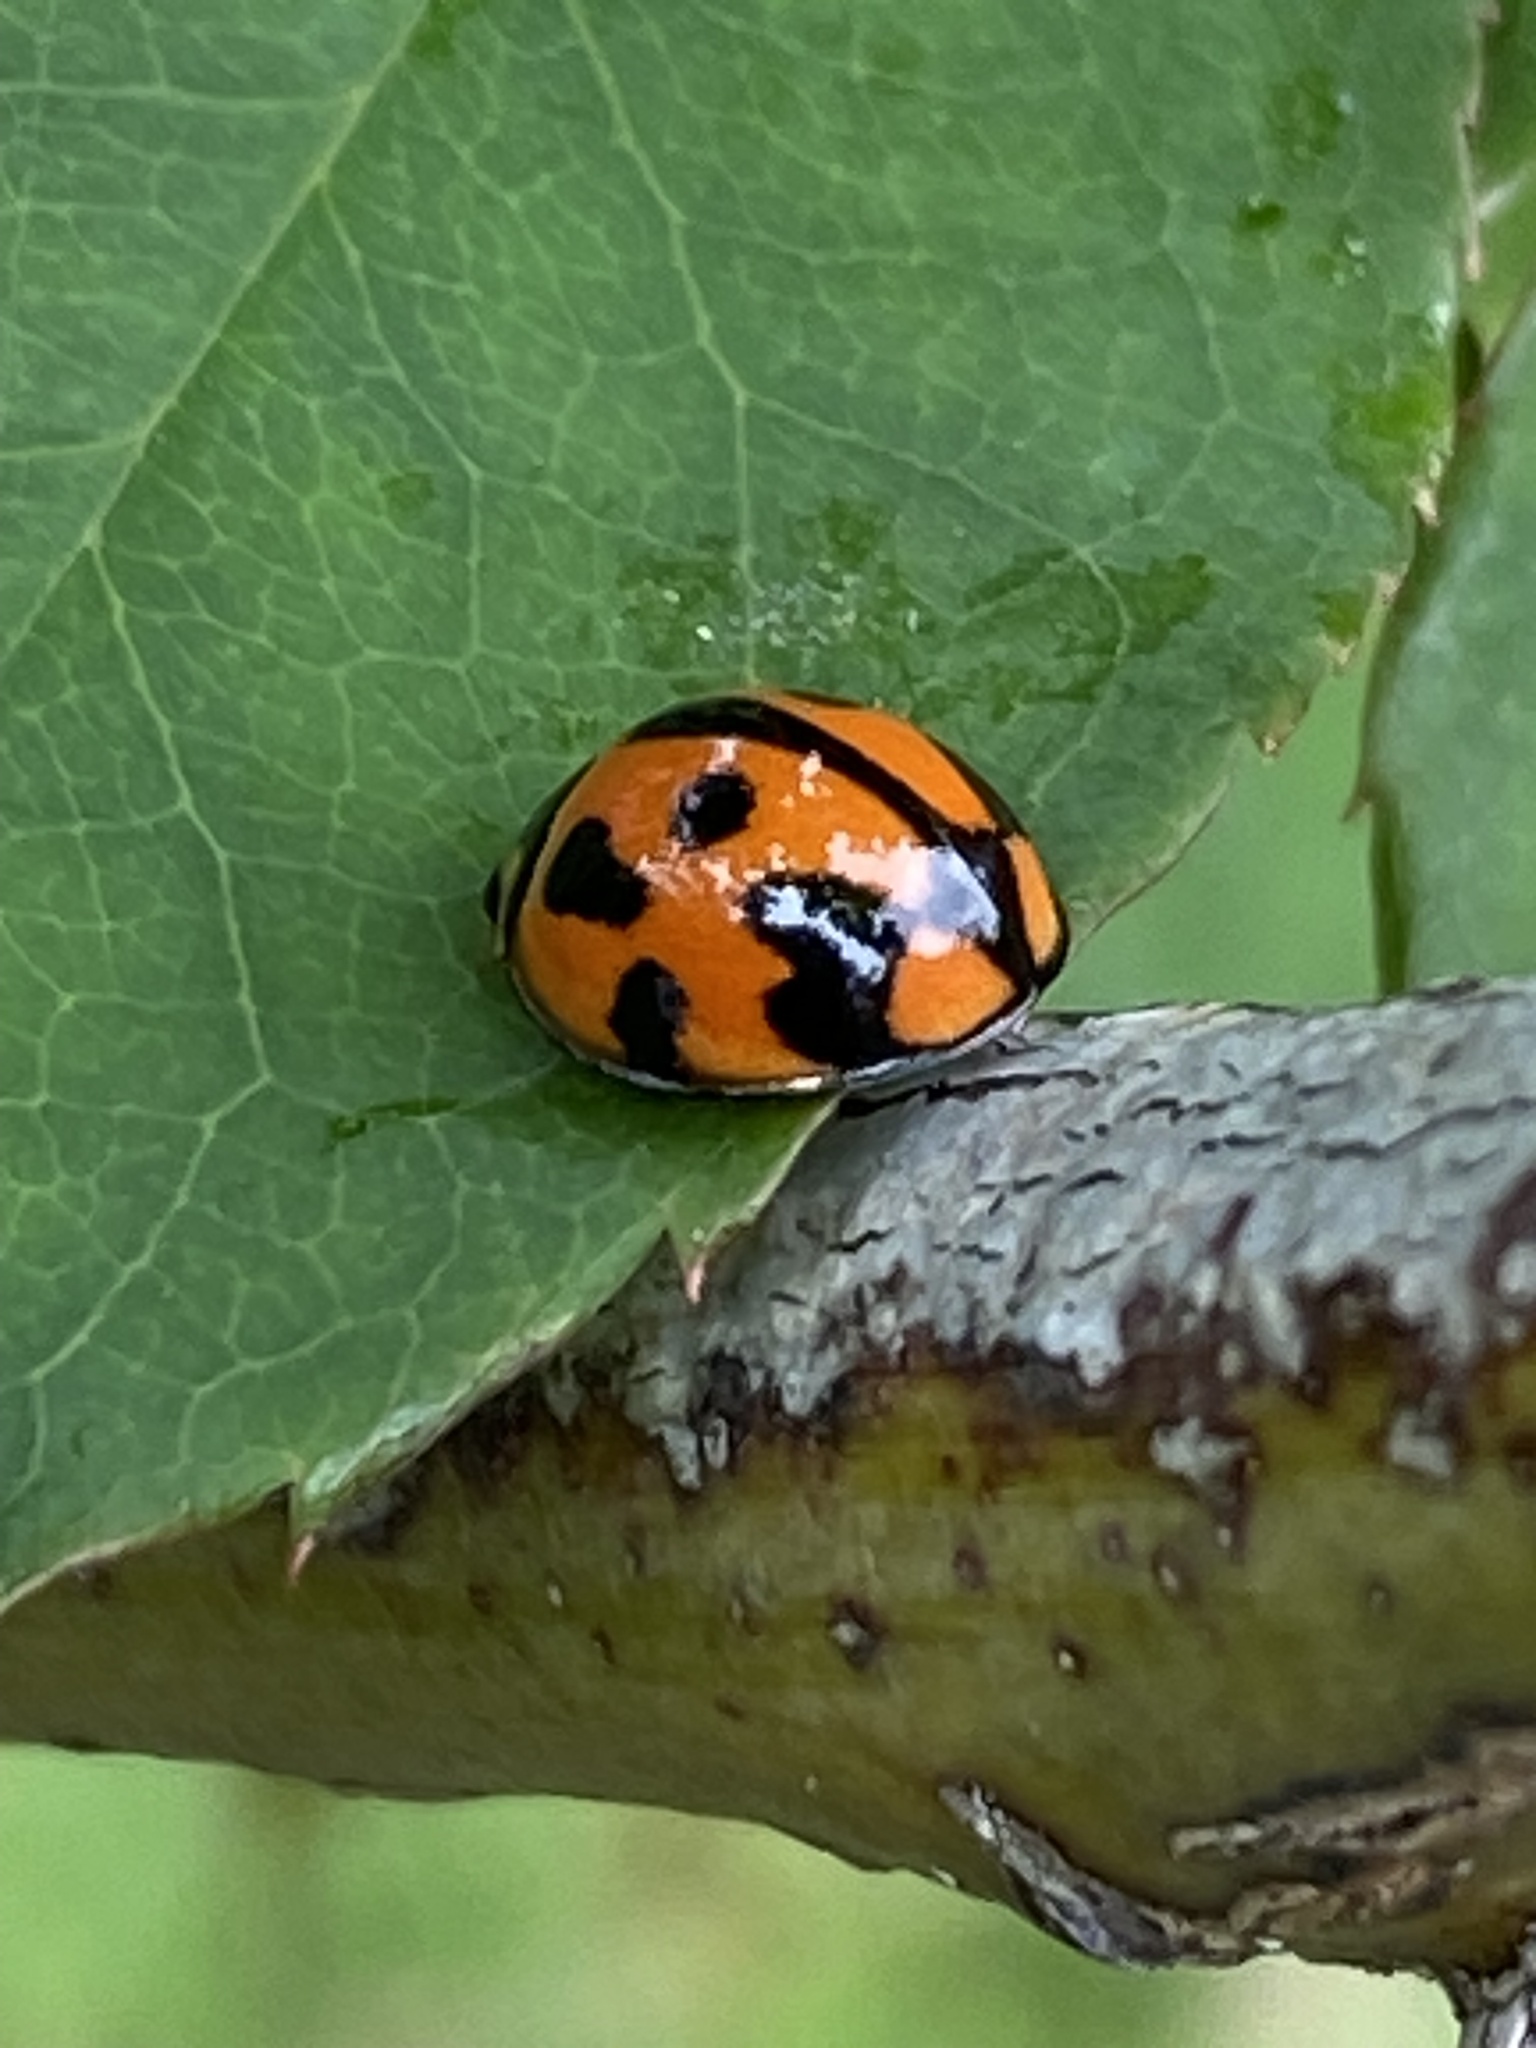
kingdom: Animalia
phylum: Arthropoda
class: Insecta
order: Coleoptera
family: Coccinellidae
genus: Coelophora
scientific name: Coelophora inaequalis
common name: Common australian lady beetle
